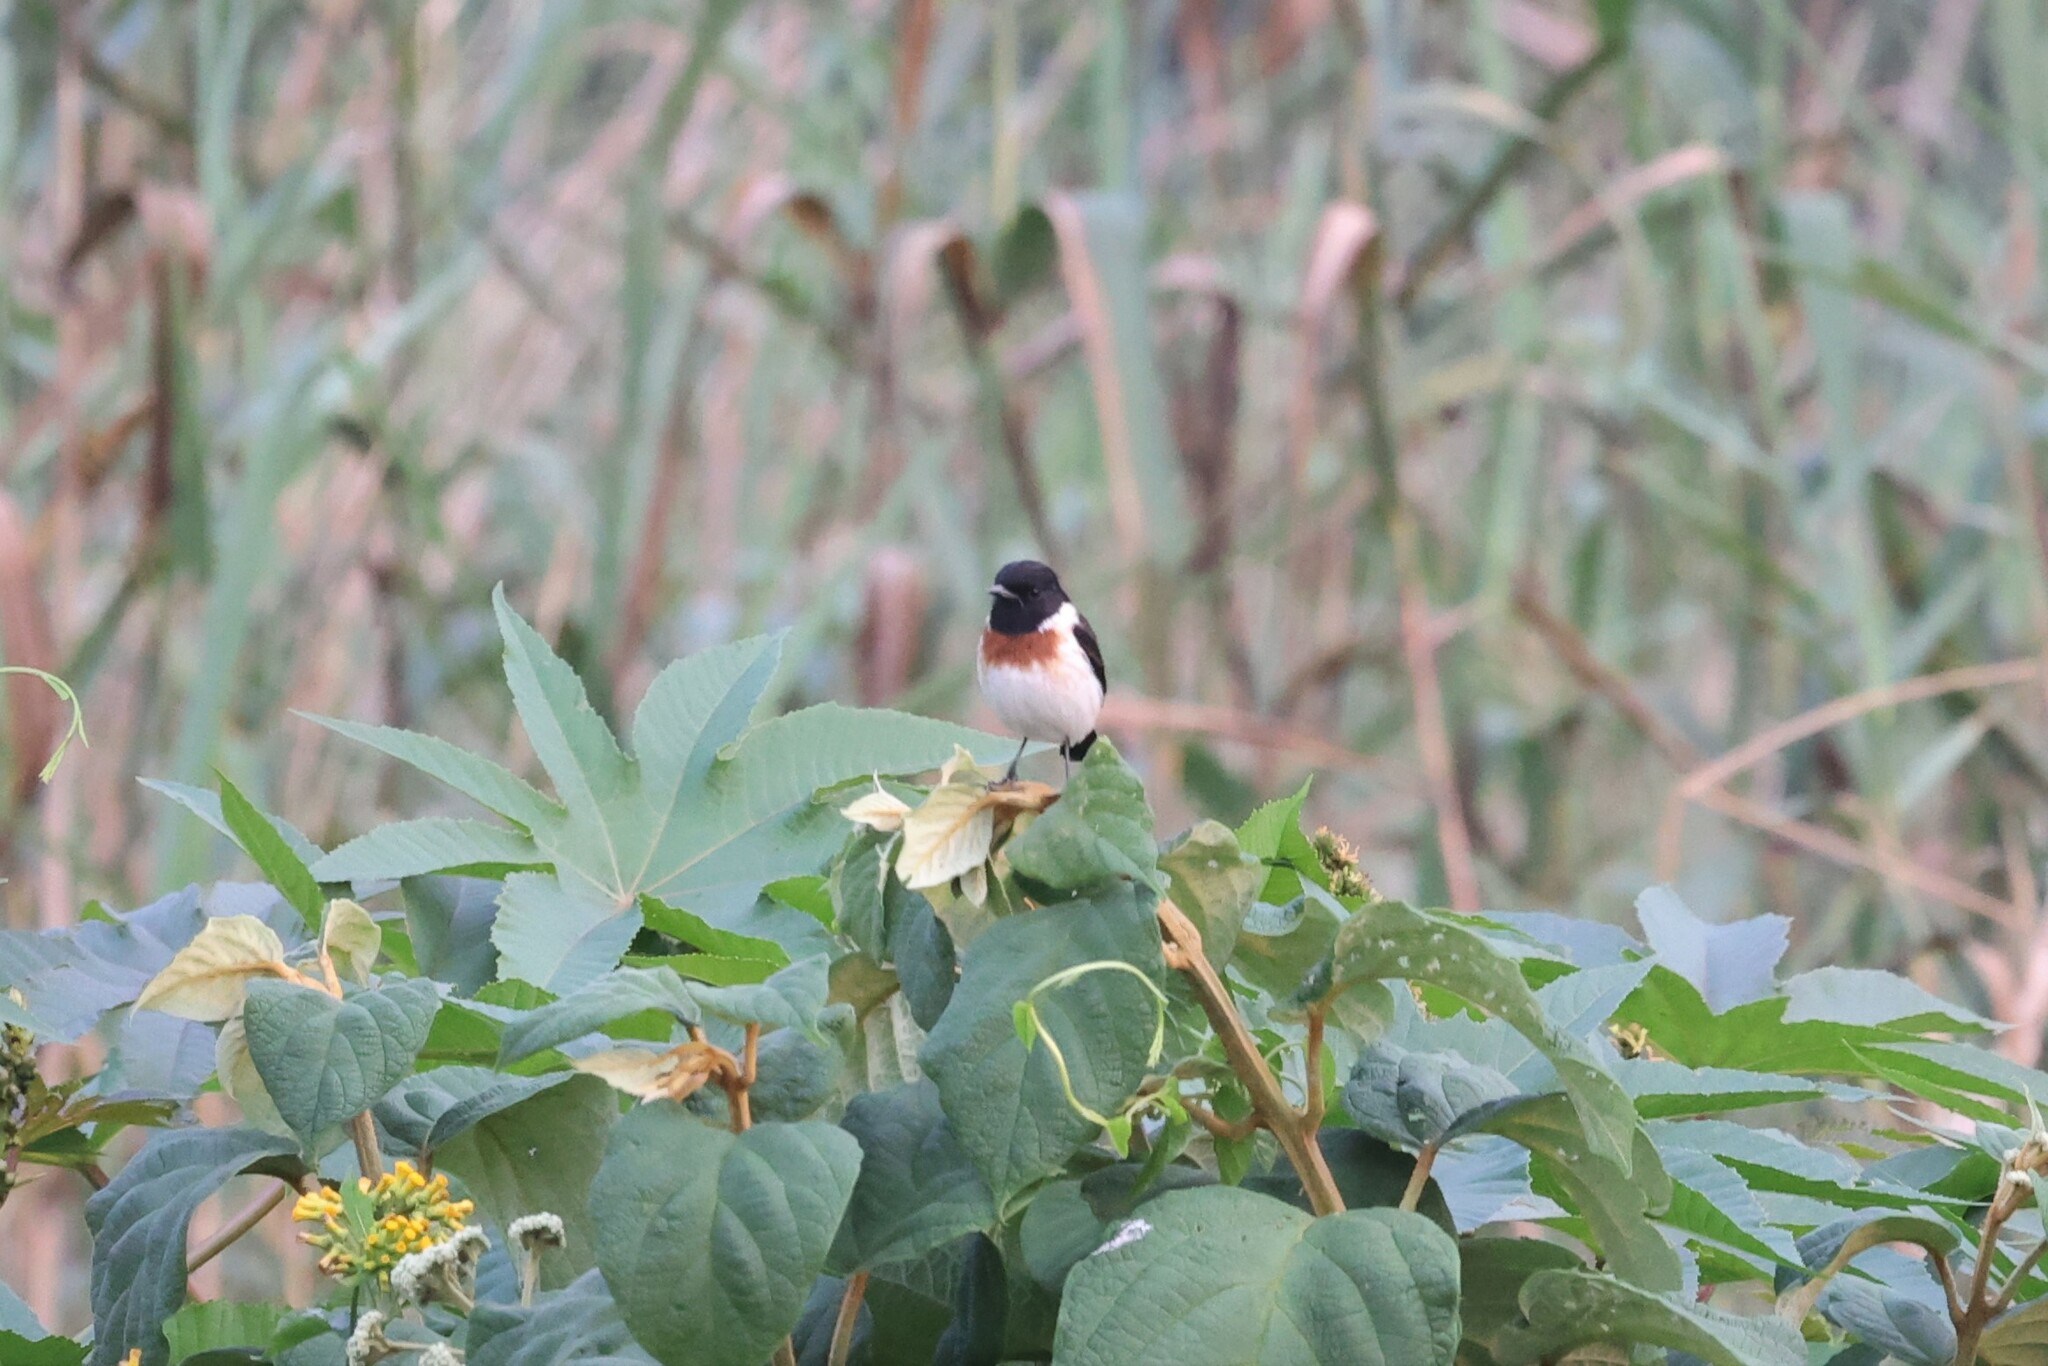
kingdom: Animalia
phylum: Chordata
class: Aves
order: Passeriformes
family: Muscicapidae
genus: Saxicola
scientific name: Saxicola torquatus
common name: African stonechat
